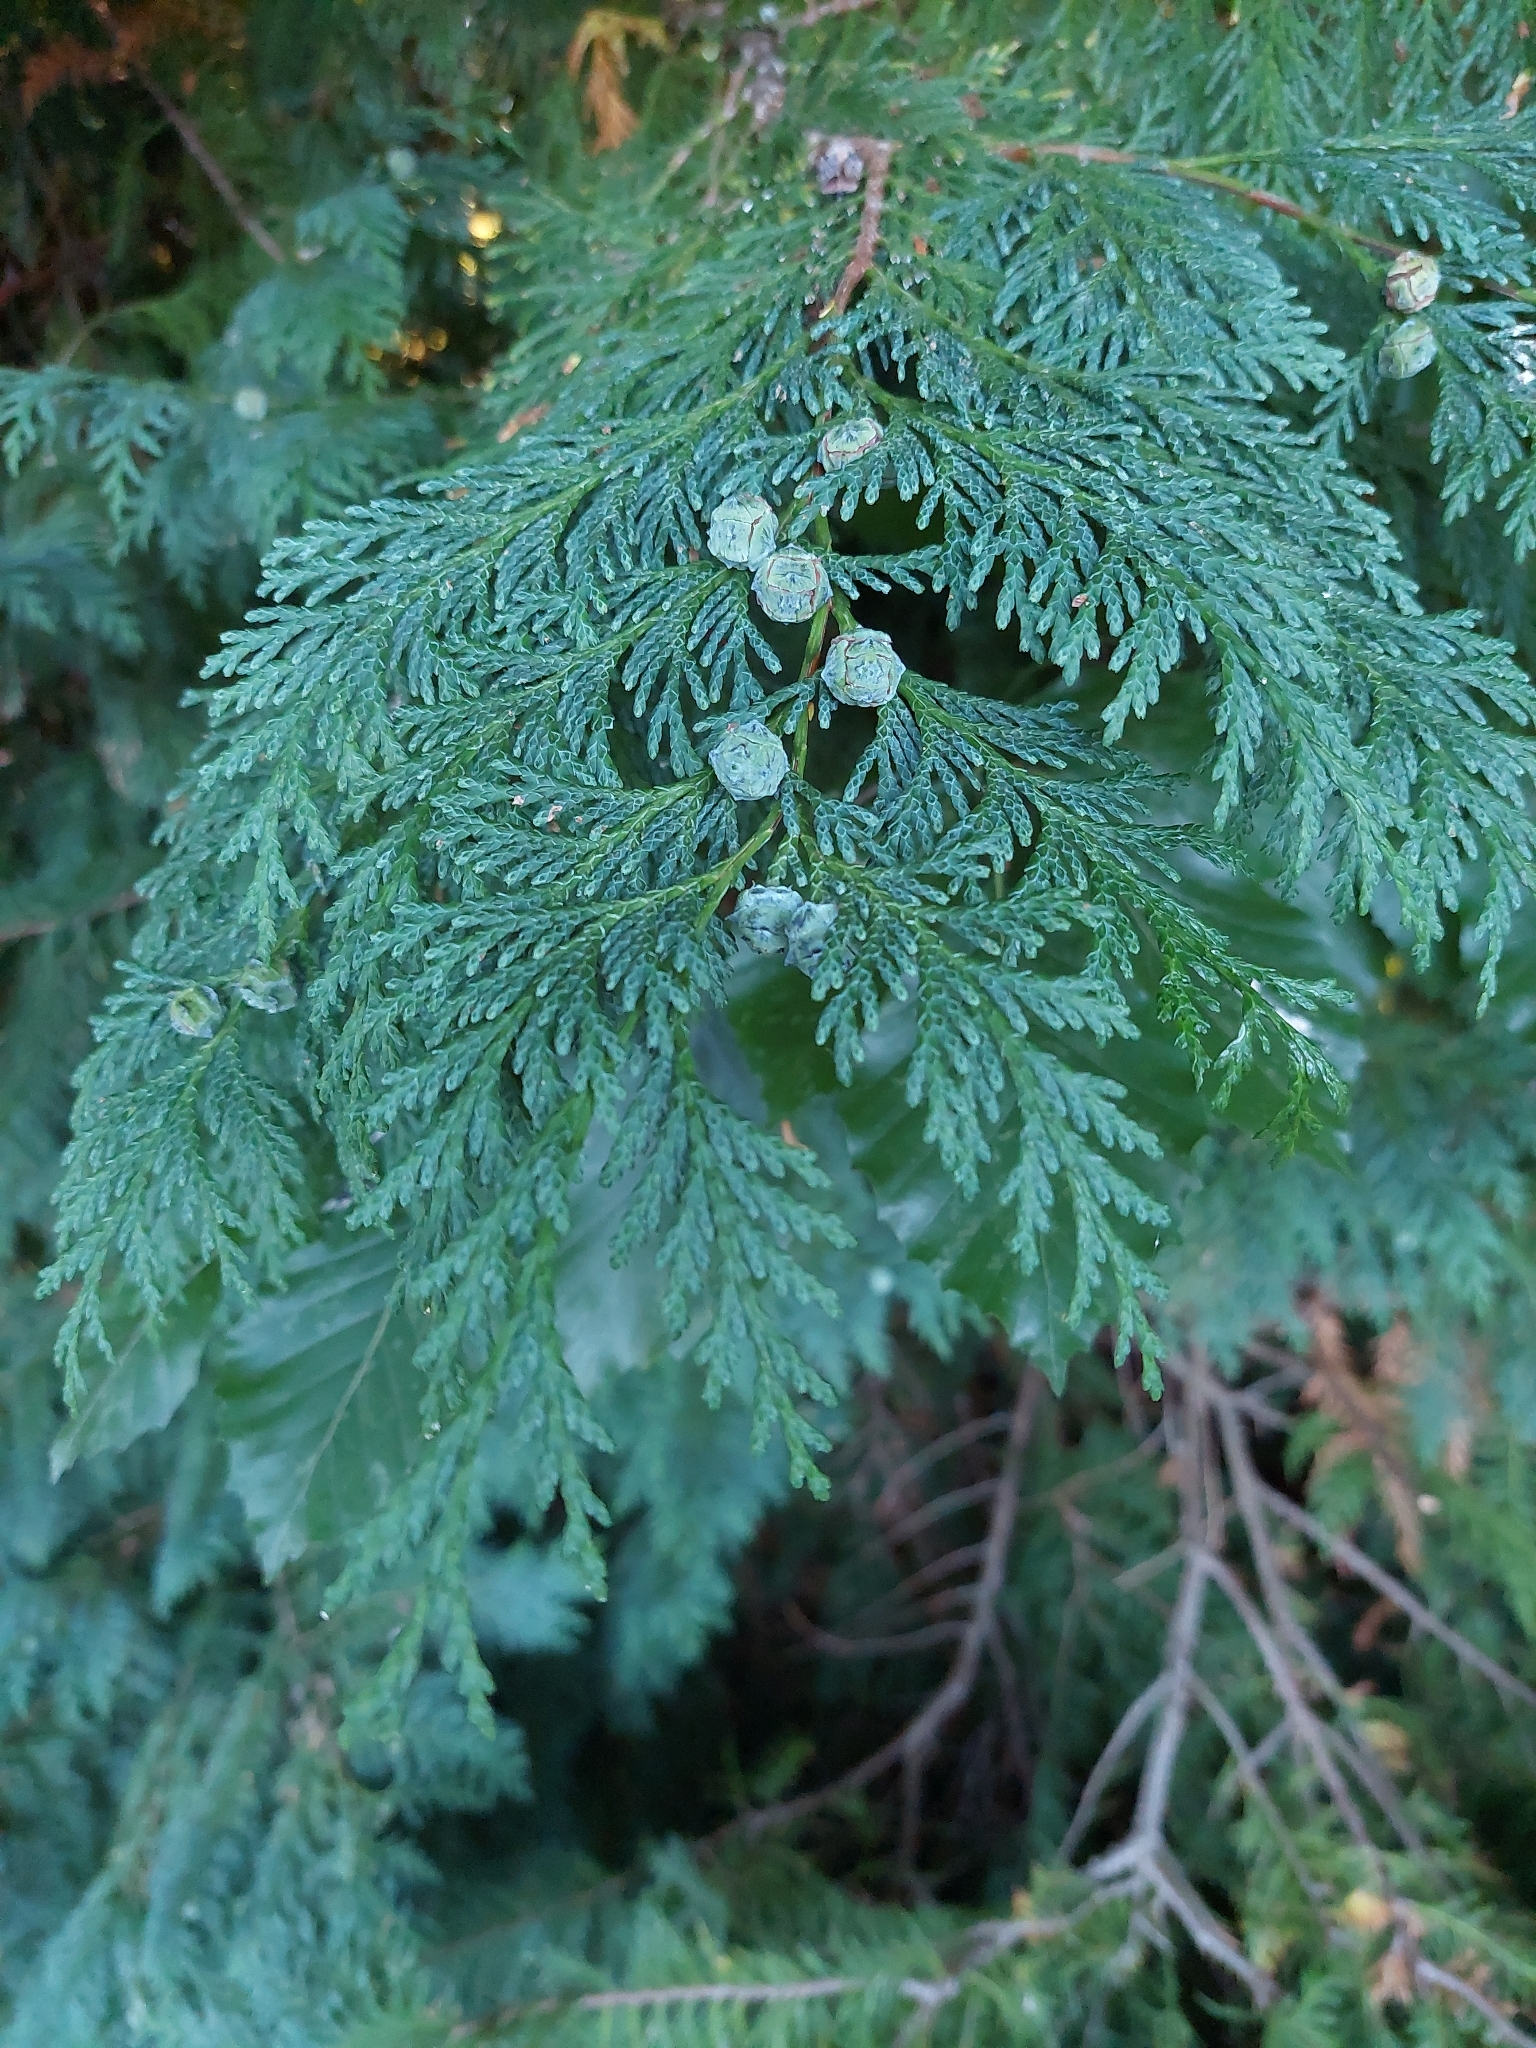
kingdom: Plantae
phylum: Tracheophyta
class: Pinopsida
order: Pinales
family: Cupressaceae
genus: Chamaecyparis
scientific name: Chamaecyparis lawsoniana
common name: Lawson's cypress
